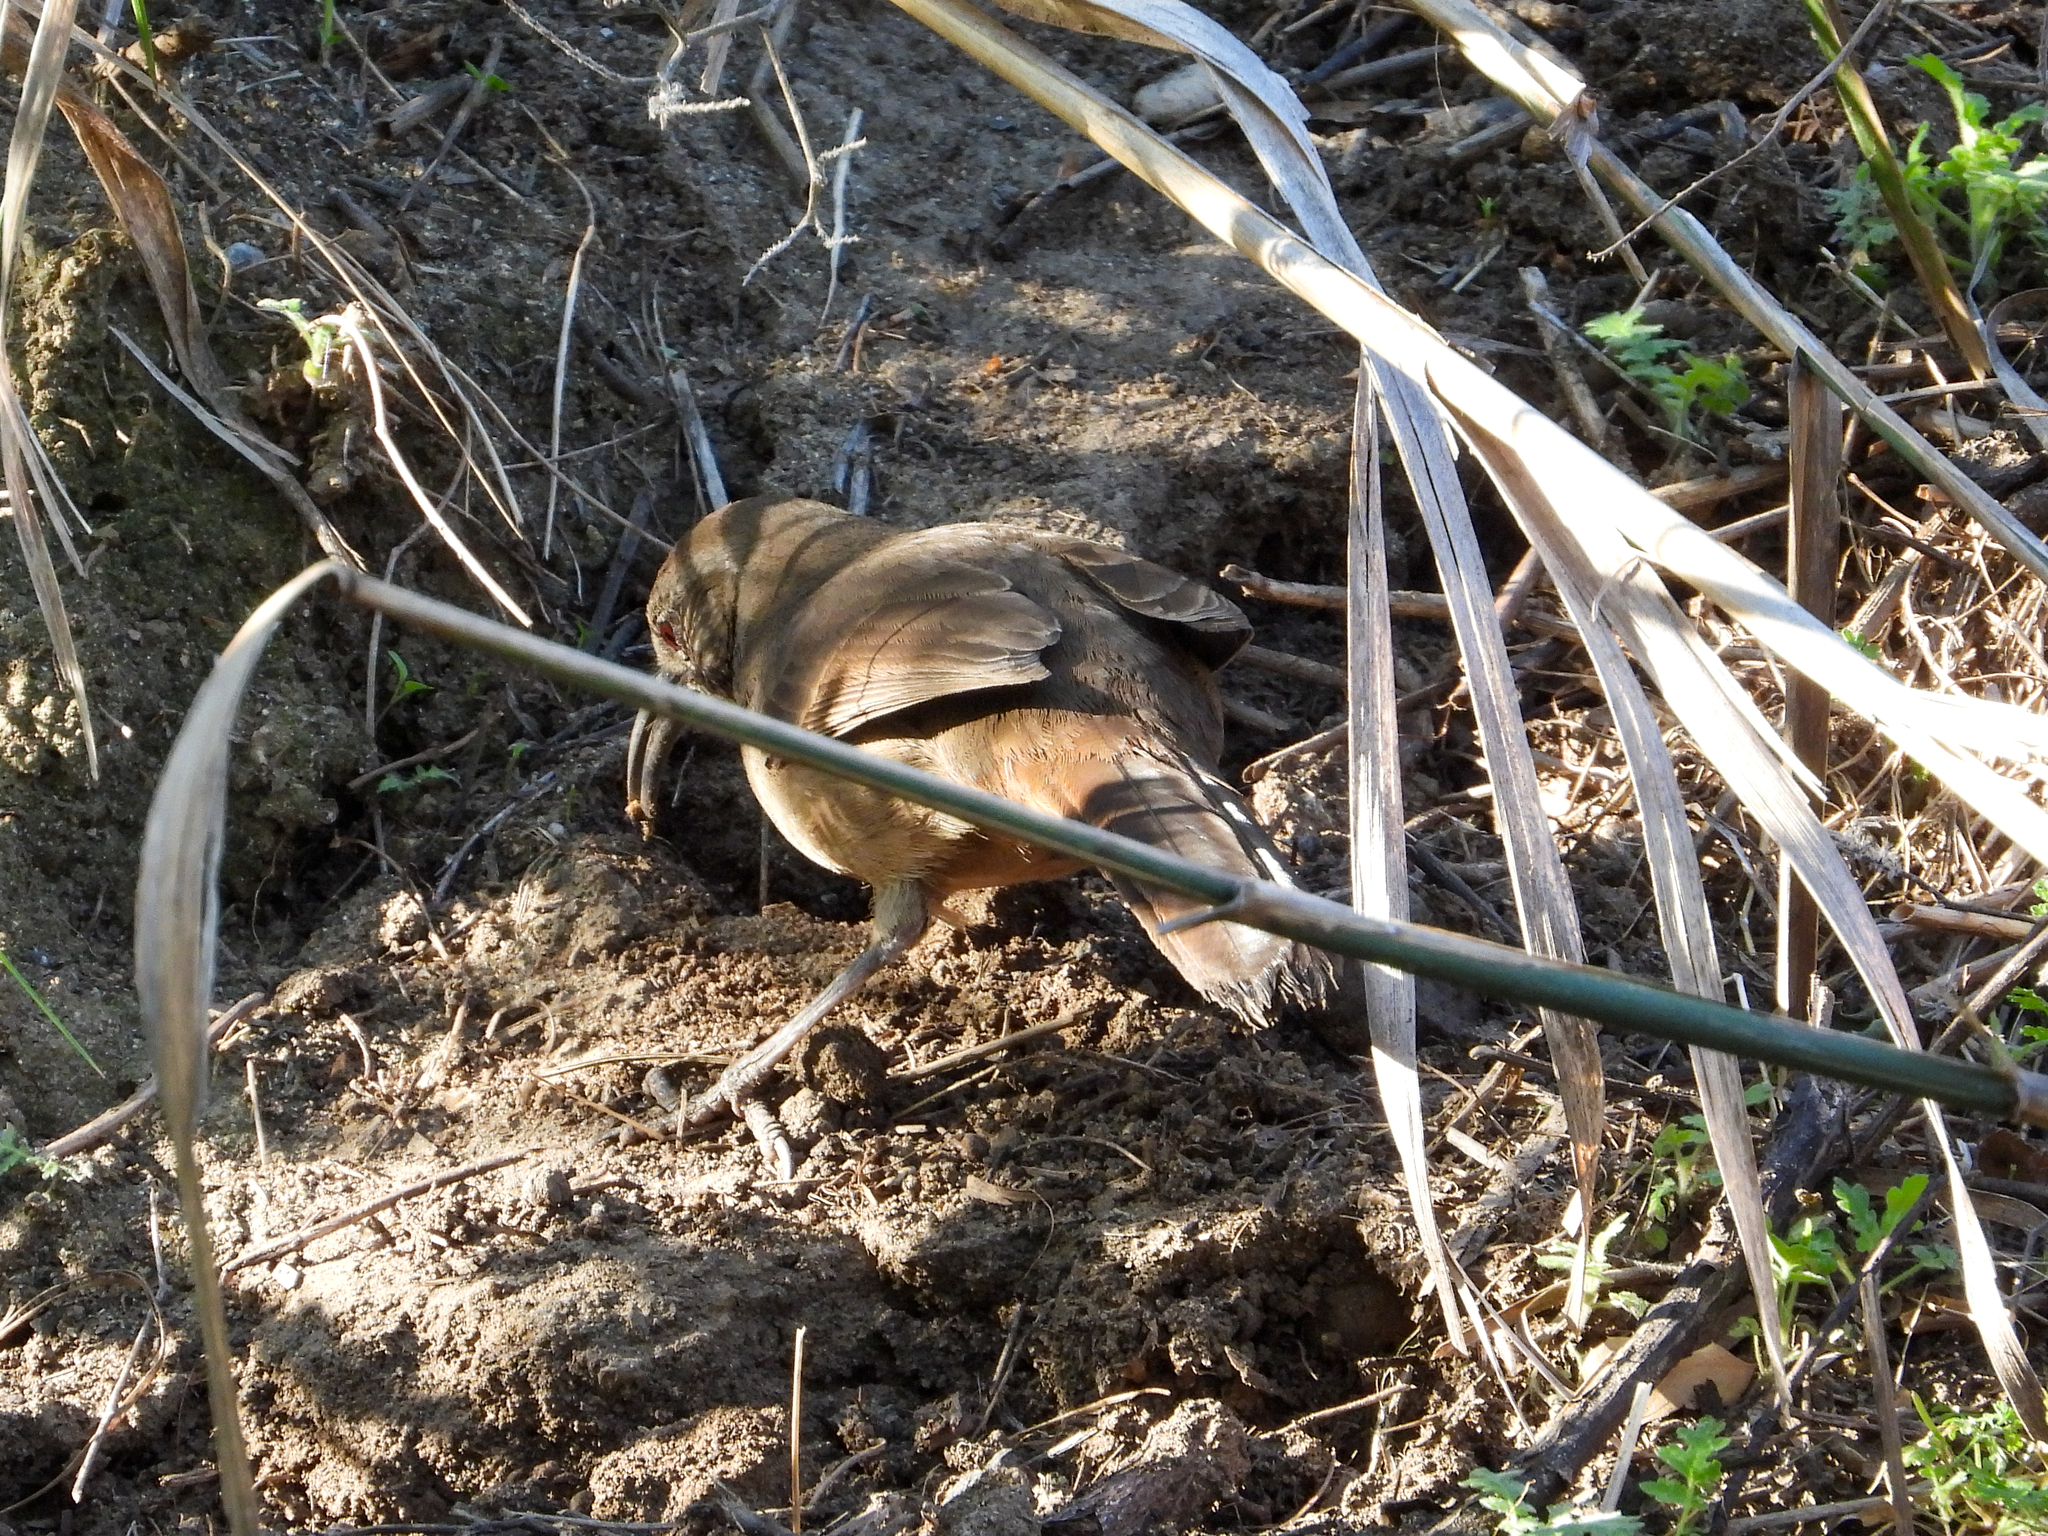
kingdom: Animalia
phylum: Chordata
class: Aves
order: Passeriformes
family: Mimidae
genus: Toxostoma
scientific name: Toxostoma redivivum
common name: California thrasher
